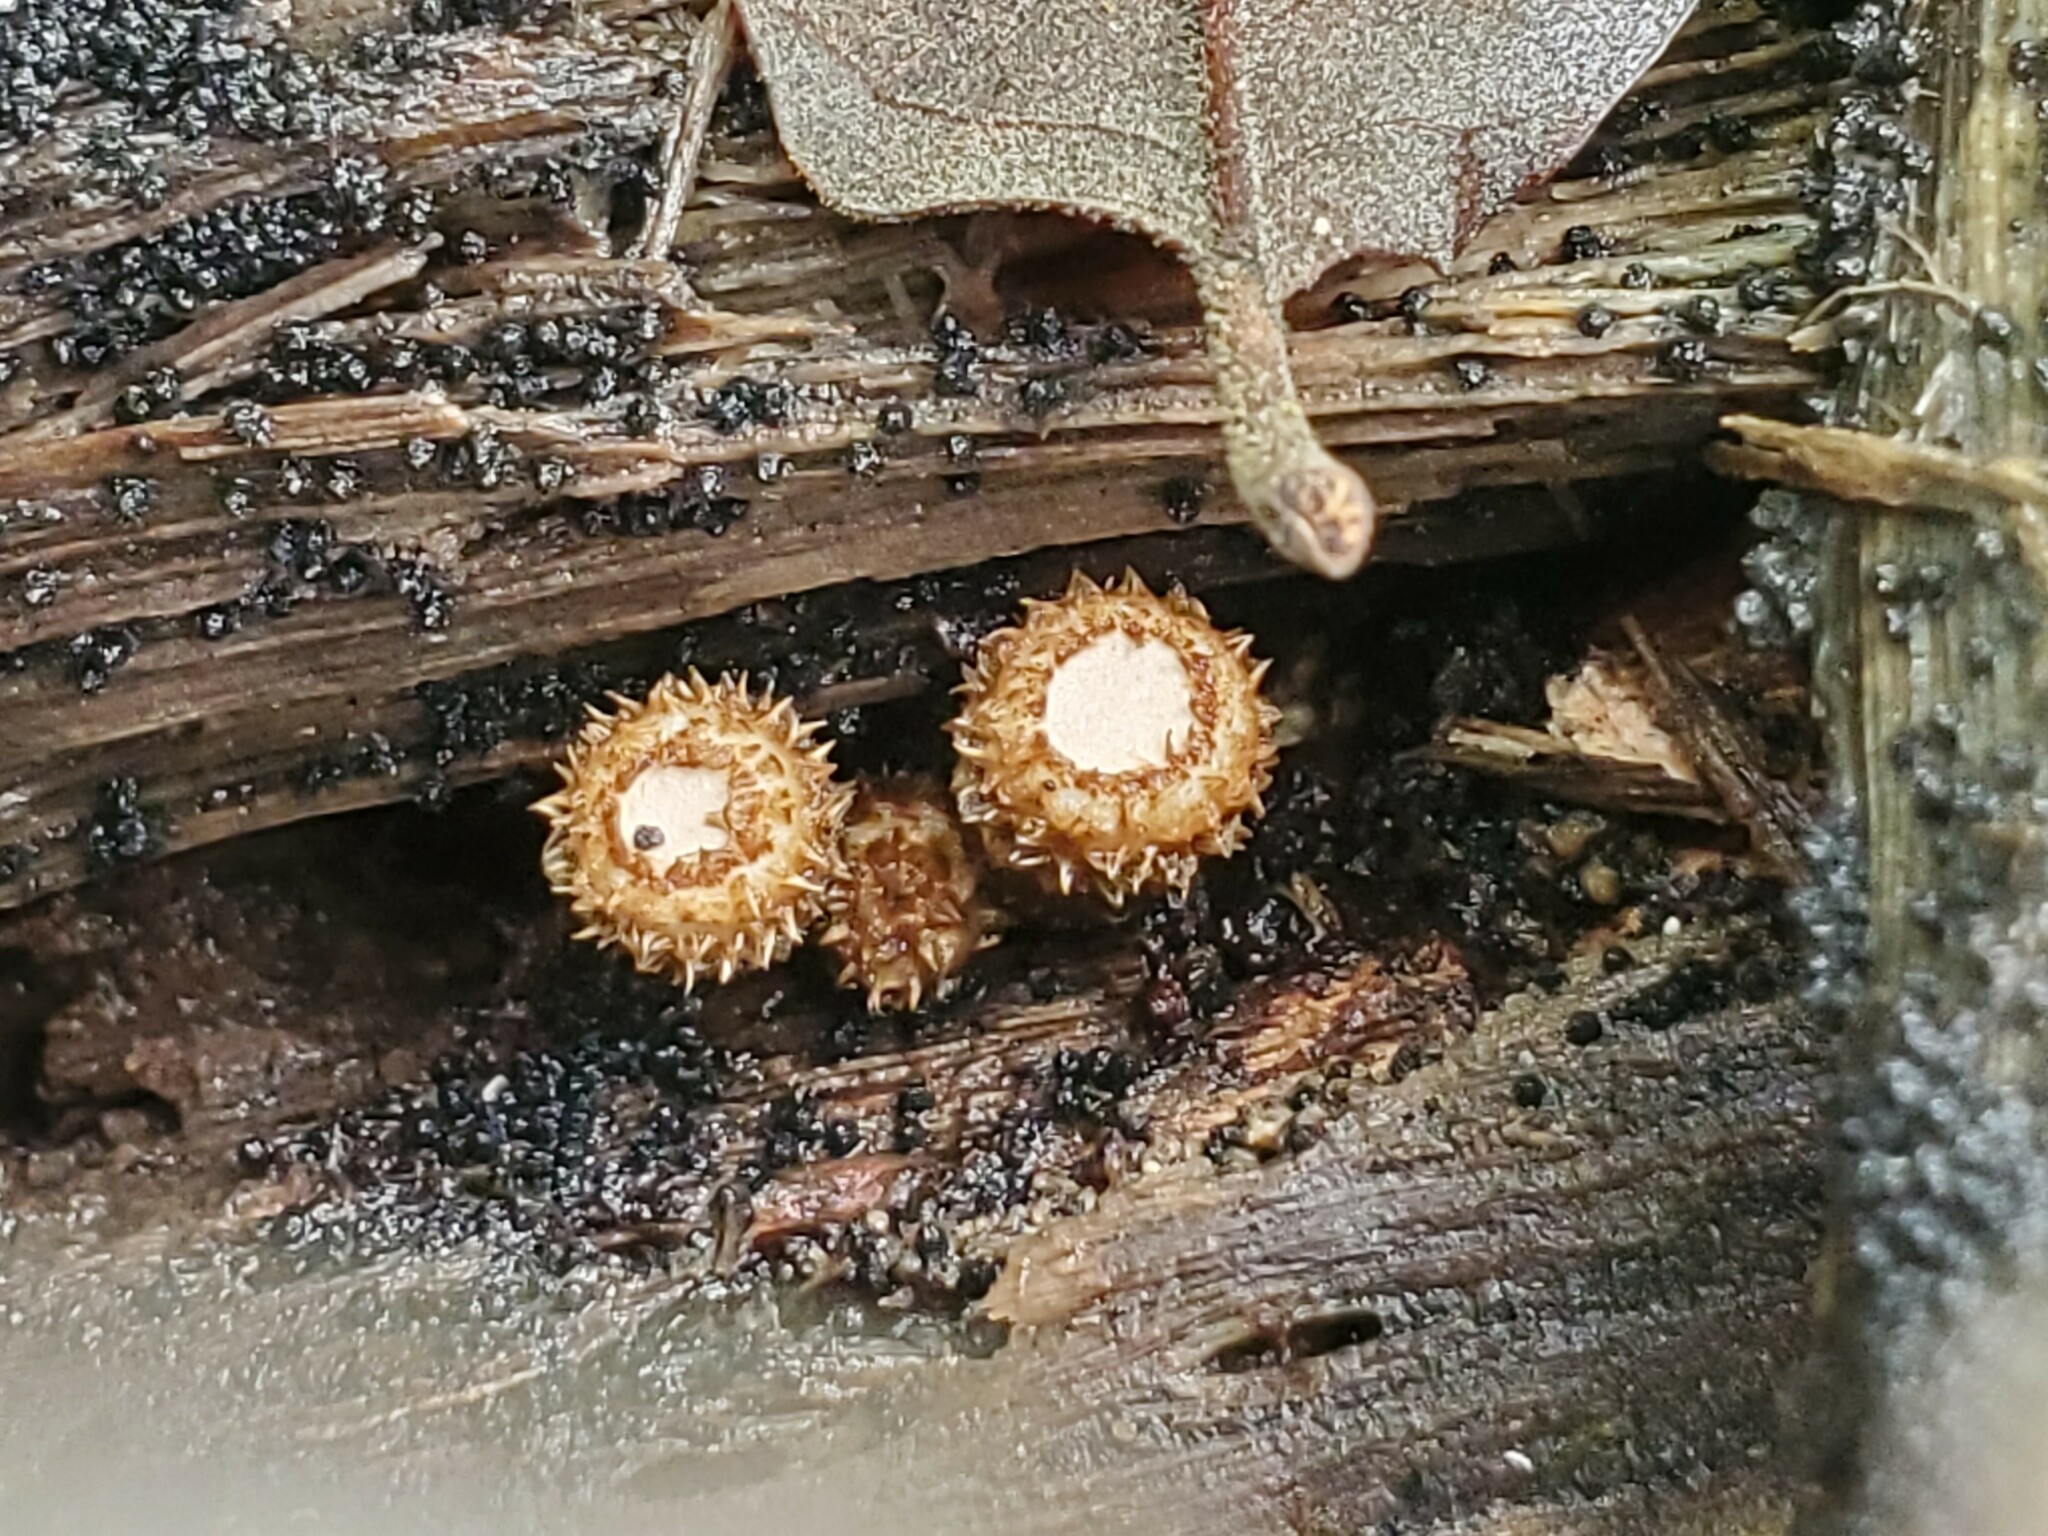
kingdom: Fungi
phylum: Basidiomycota
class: Agaricomycetes
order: Agaricales
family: Agaricaceae
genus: Cyathus
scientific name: Cyathus striatus
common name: Fluted bird's nest
